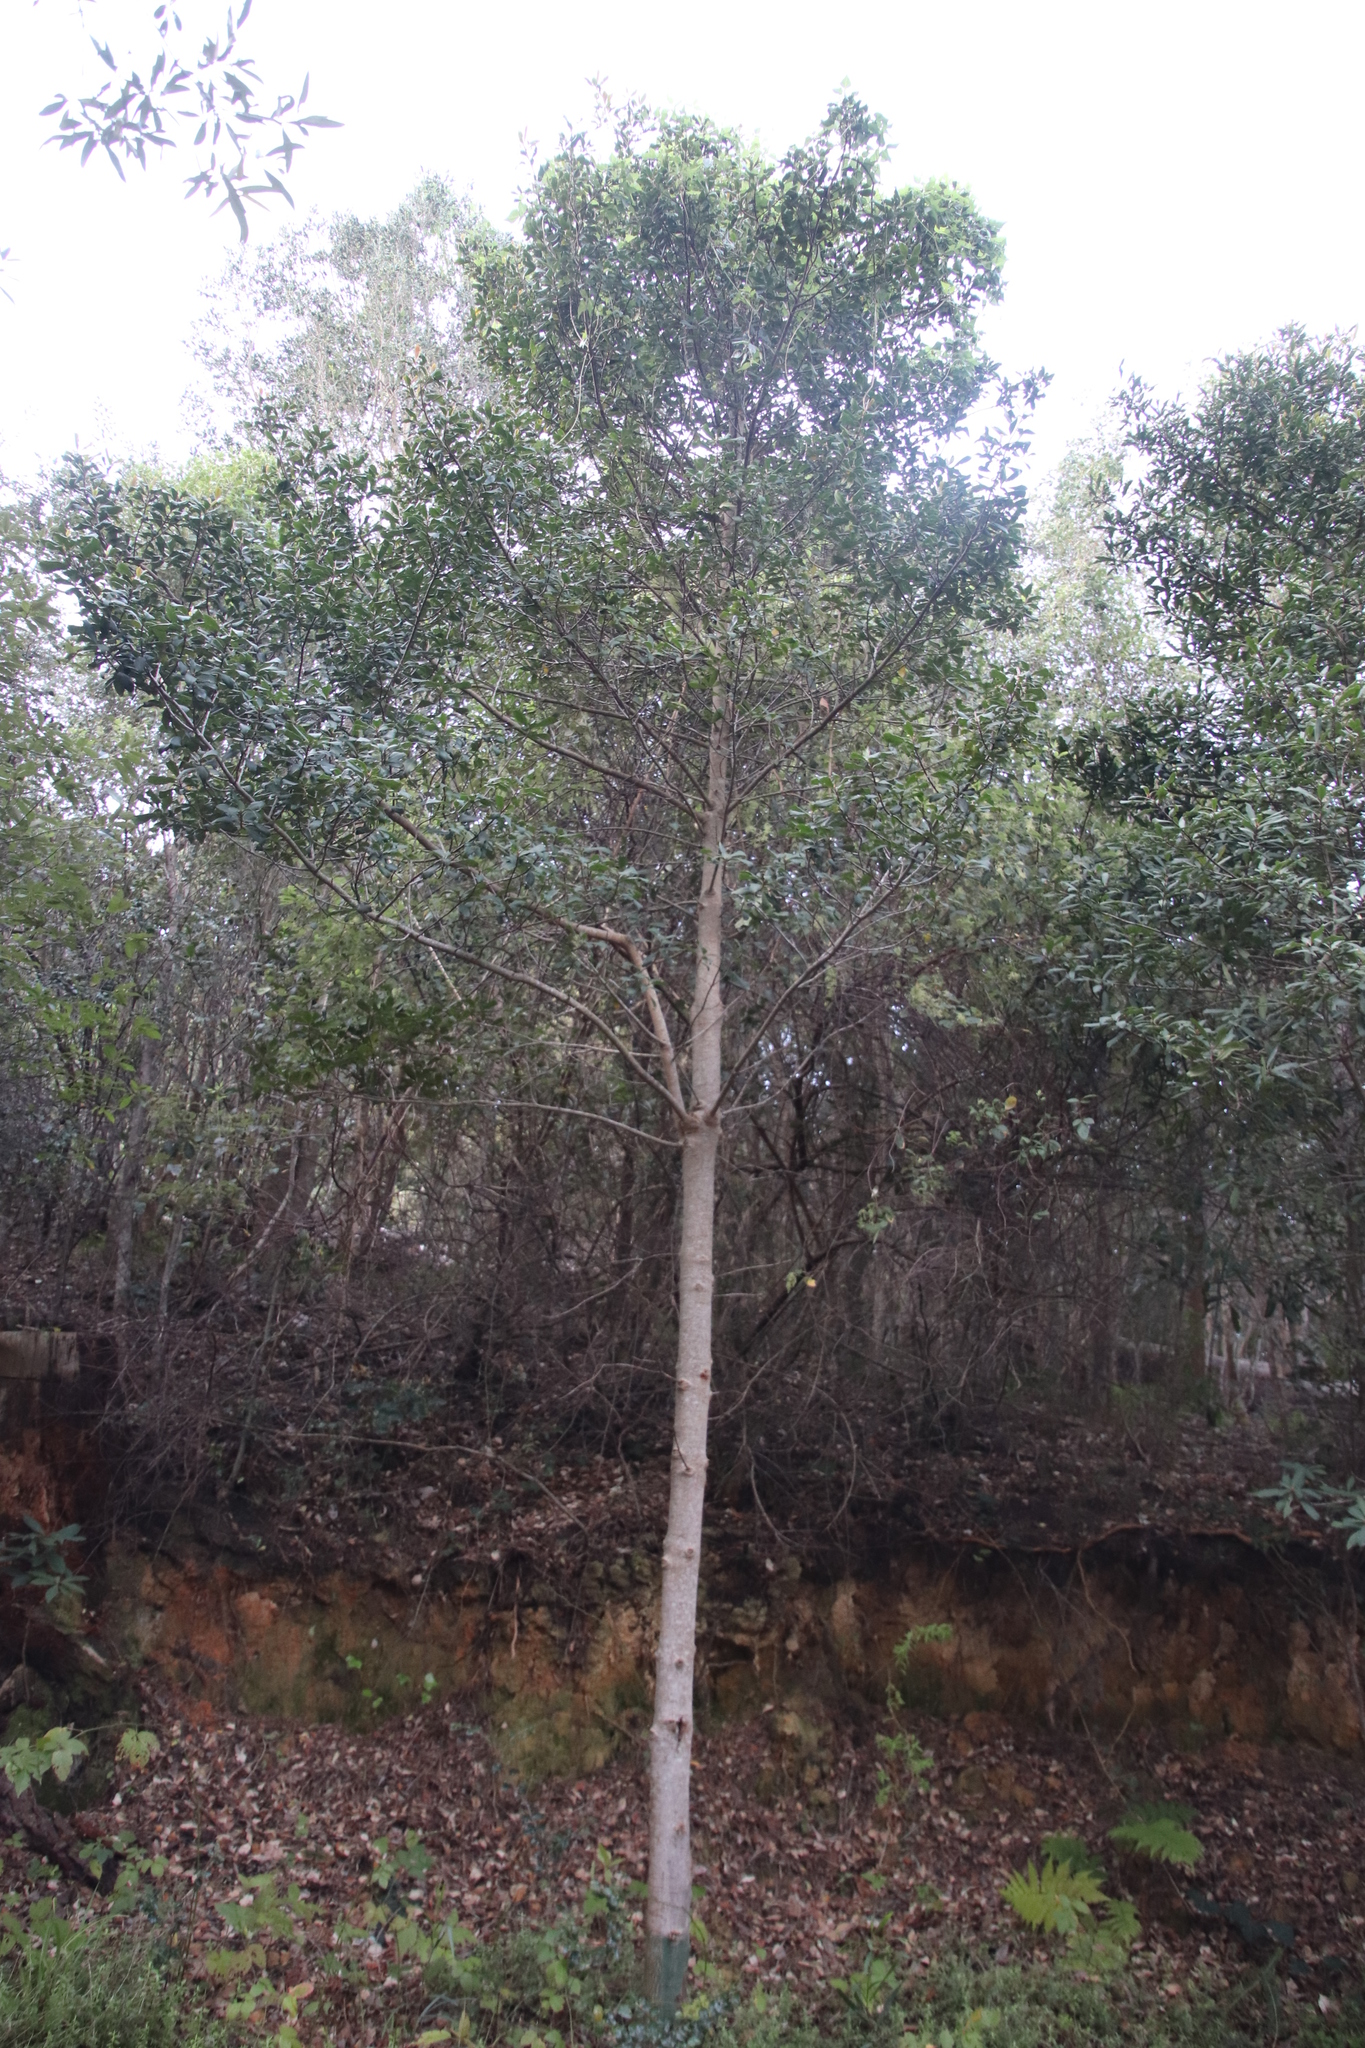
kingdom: Plantae
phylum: Tracheophyta
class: Magnoliopsida
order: Ericales
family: Primulaceae
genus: Myrsine
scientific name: Myrsine melanophloeos
